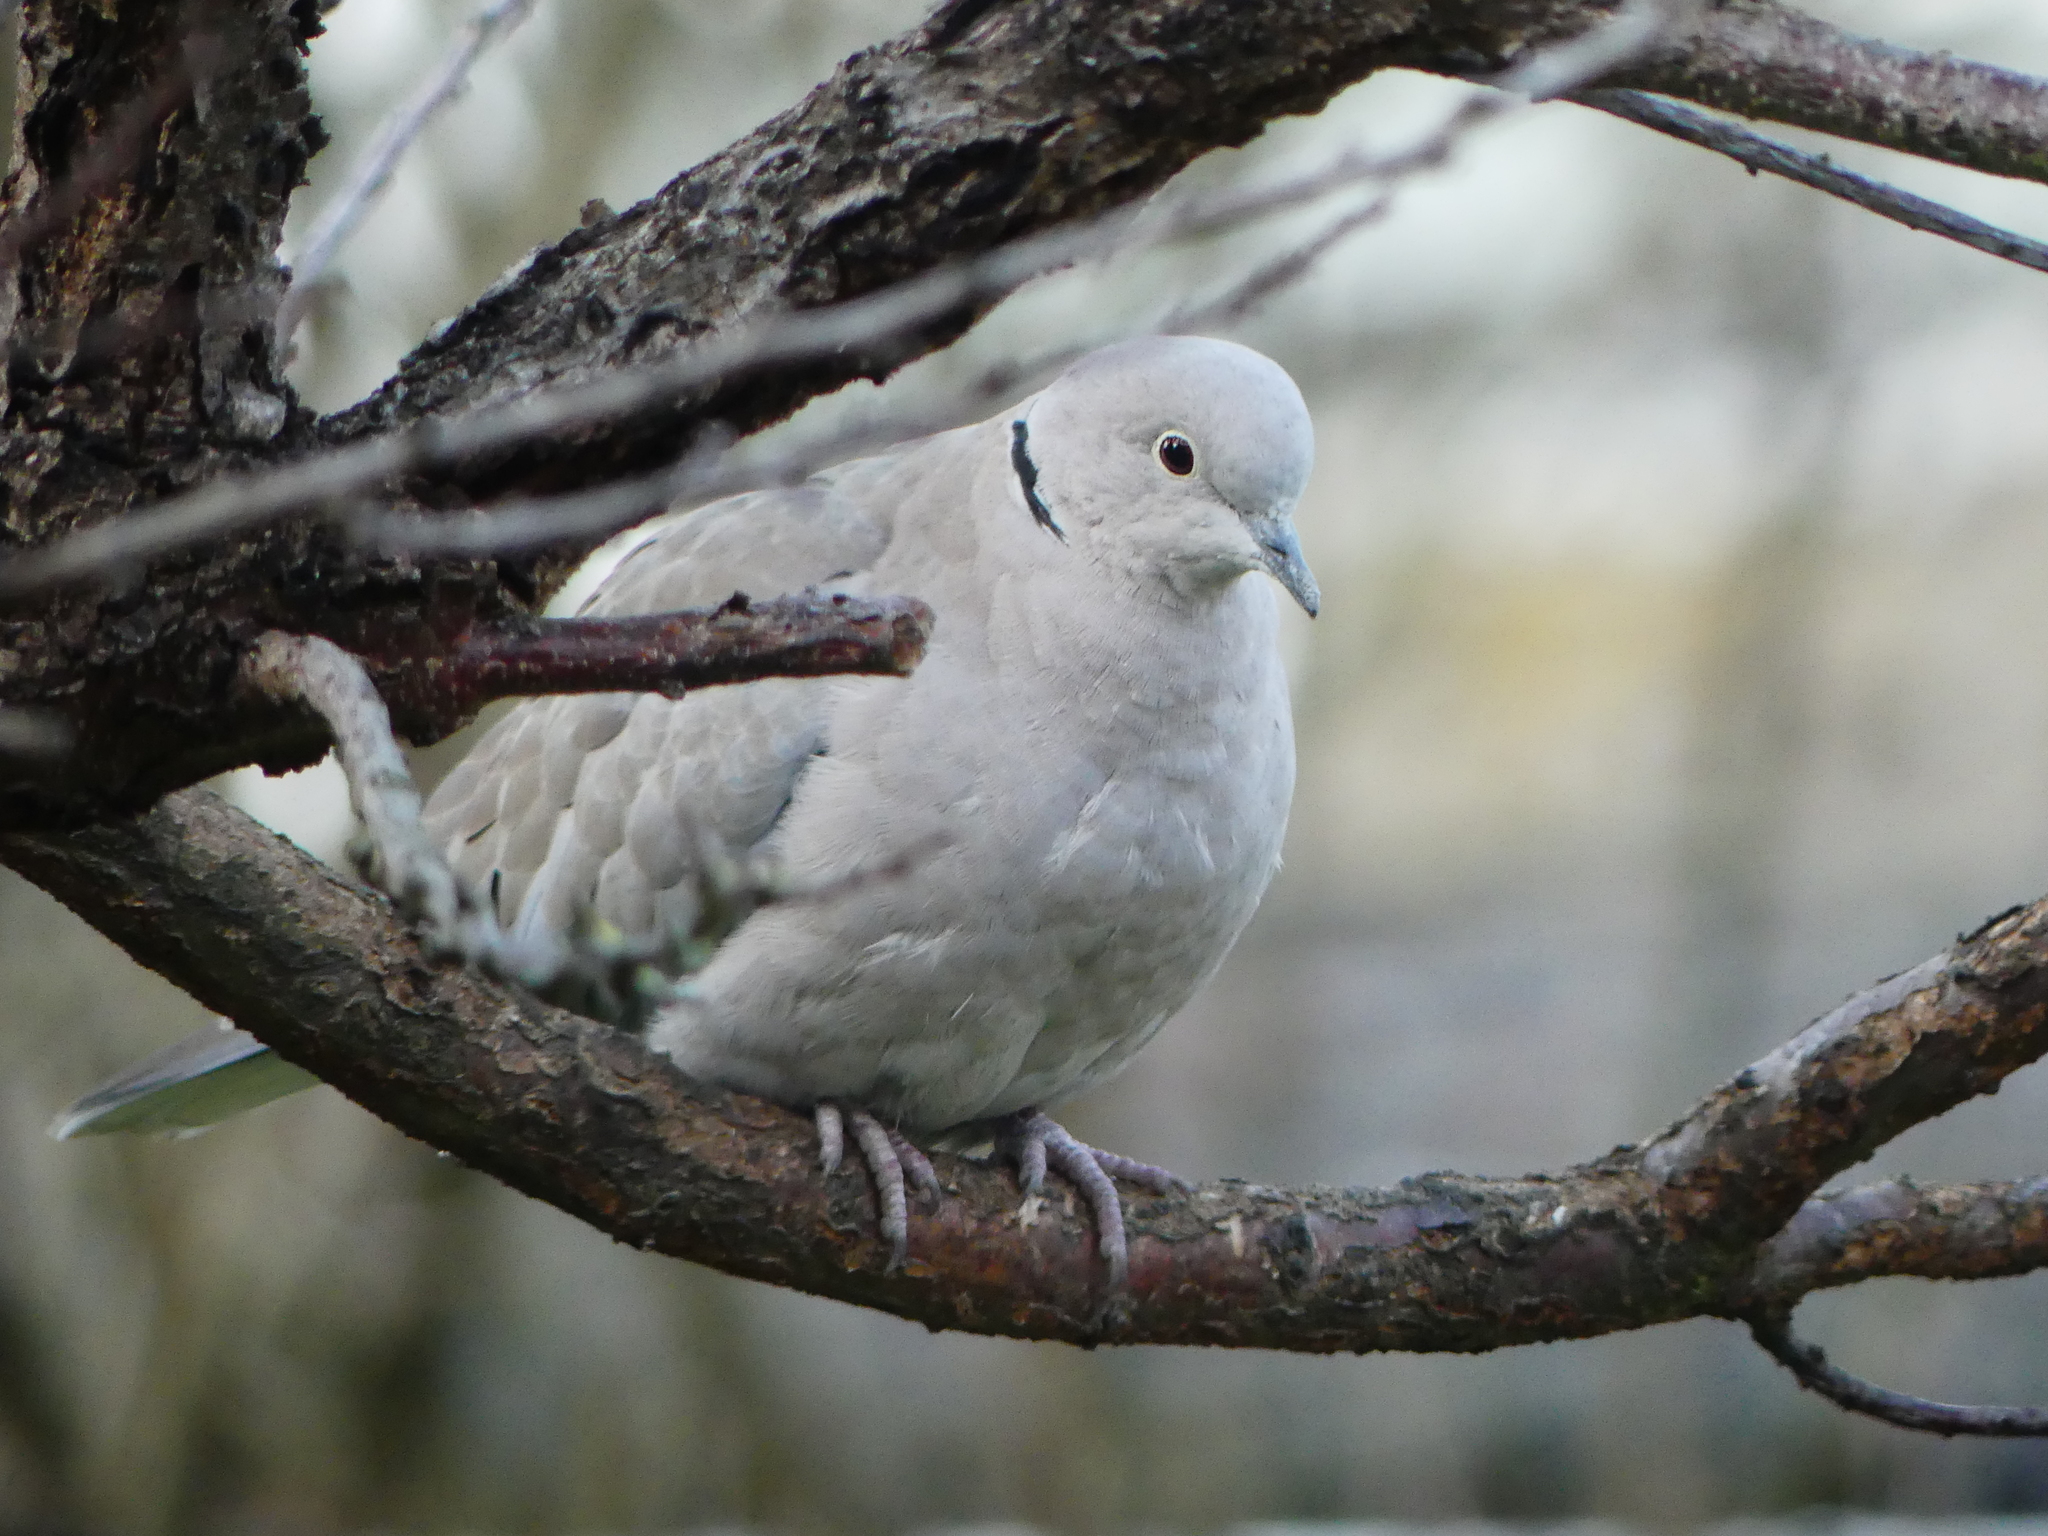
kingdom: Animalia
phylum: Chordata
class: Aves
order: Columbiformes
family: Columbidae
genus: Streptopelia
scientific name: Streptopelia decaocto
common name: Eurasian collared dove
